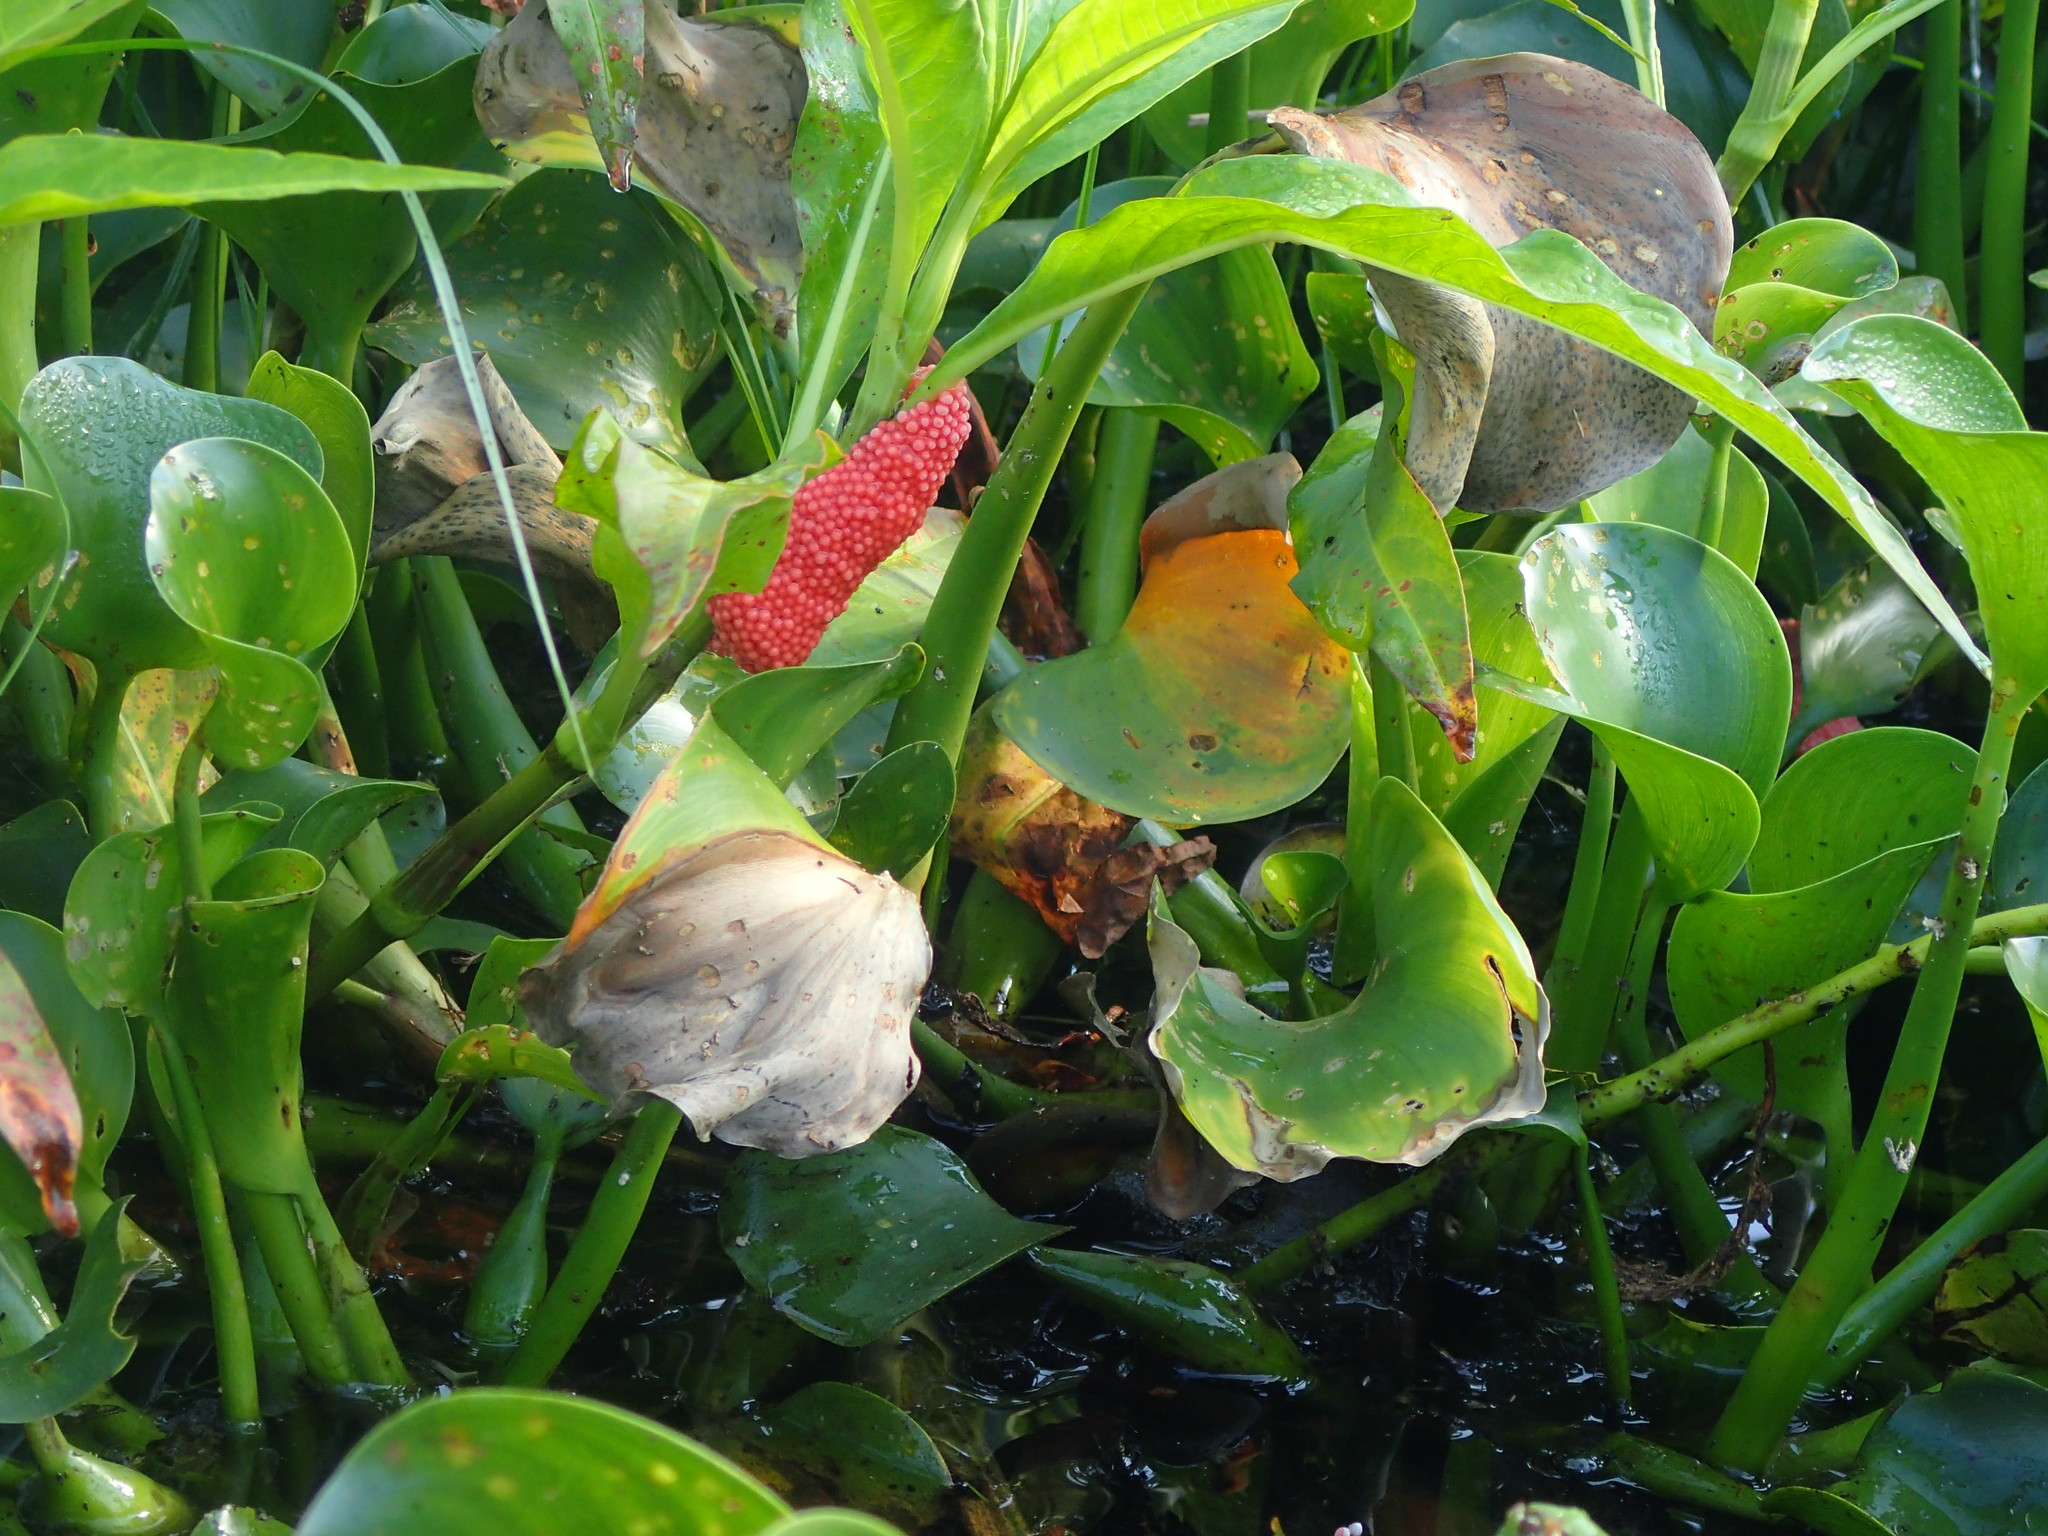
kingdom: Animalia
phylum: Mollusca
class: Gastropoda
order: Architaenioglossa
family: Ampullariidae
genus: Pomacea
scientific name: Pomacea maculata
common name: Giant applesnail
